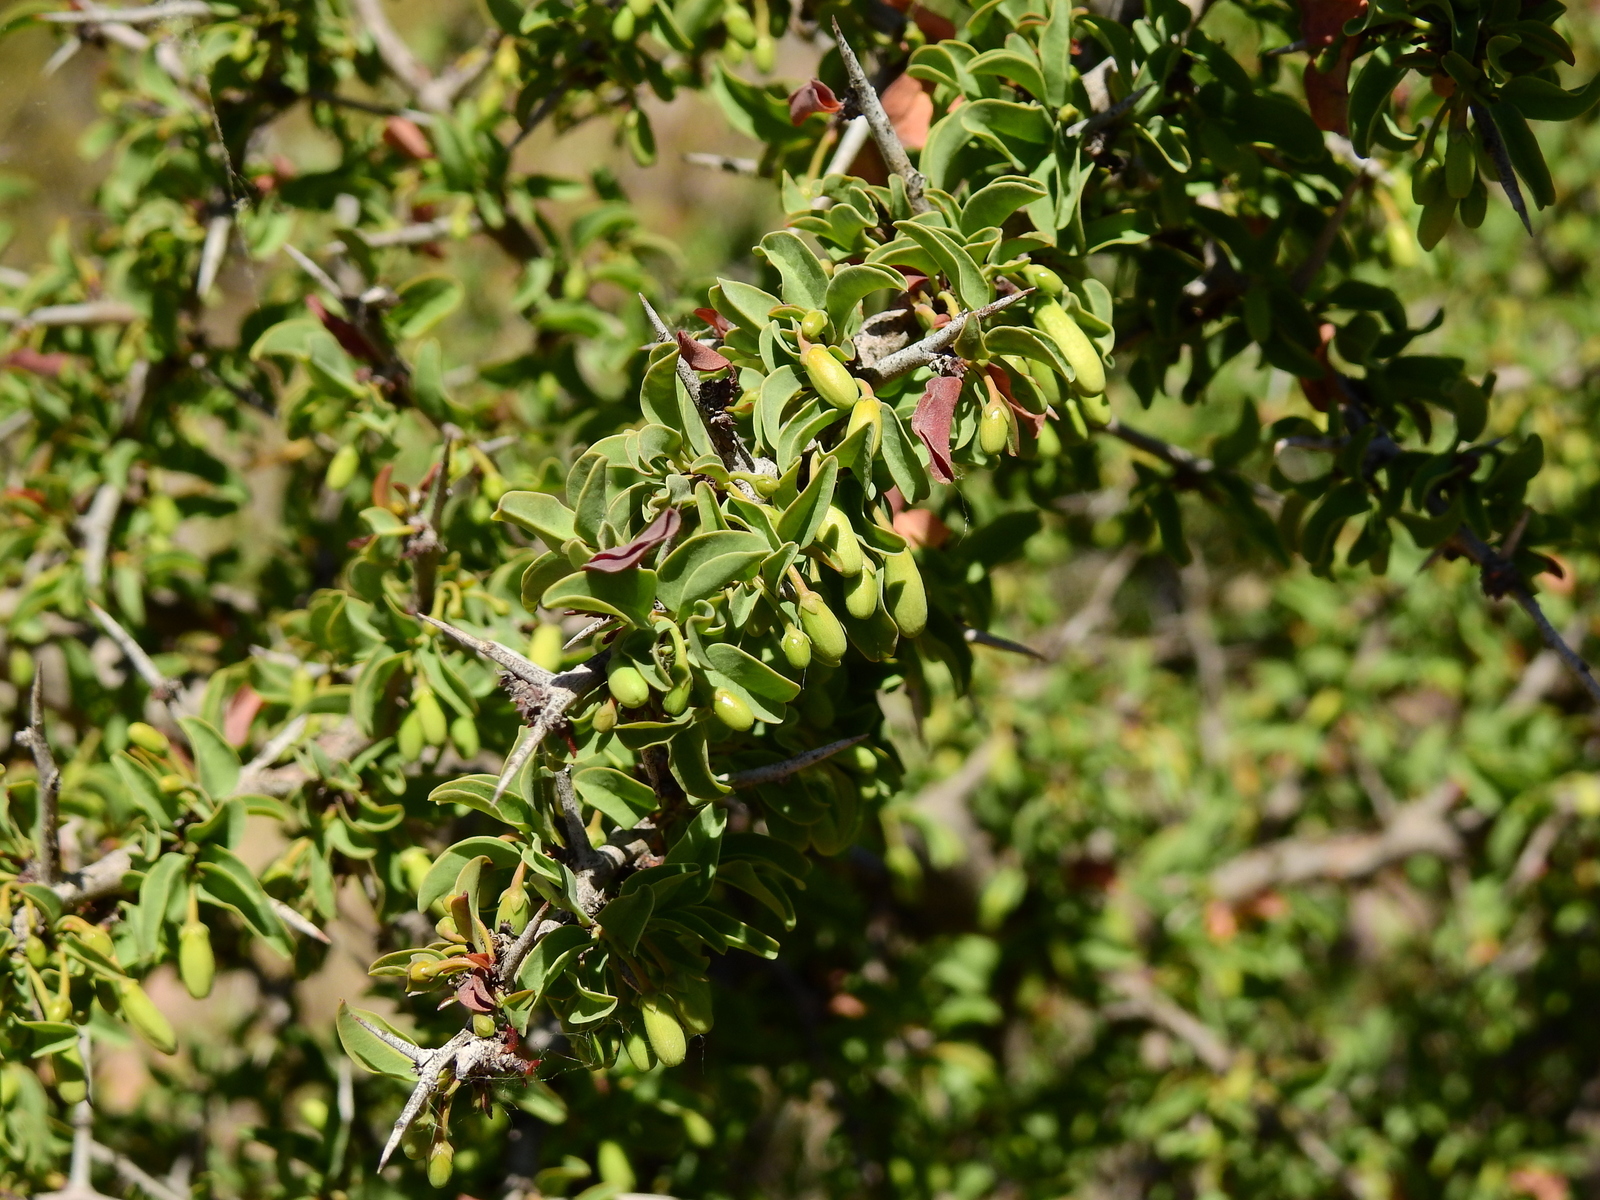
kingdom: Plantae
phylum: Tracheophyta
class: Magnoliopsida
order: Santalales
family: Ximeniaceae
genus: Ximenia
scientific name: Ximenia americana
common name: Tallowwood
